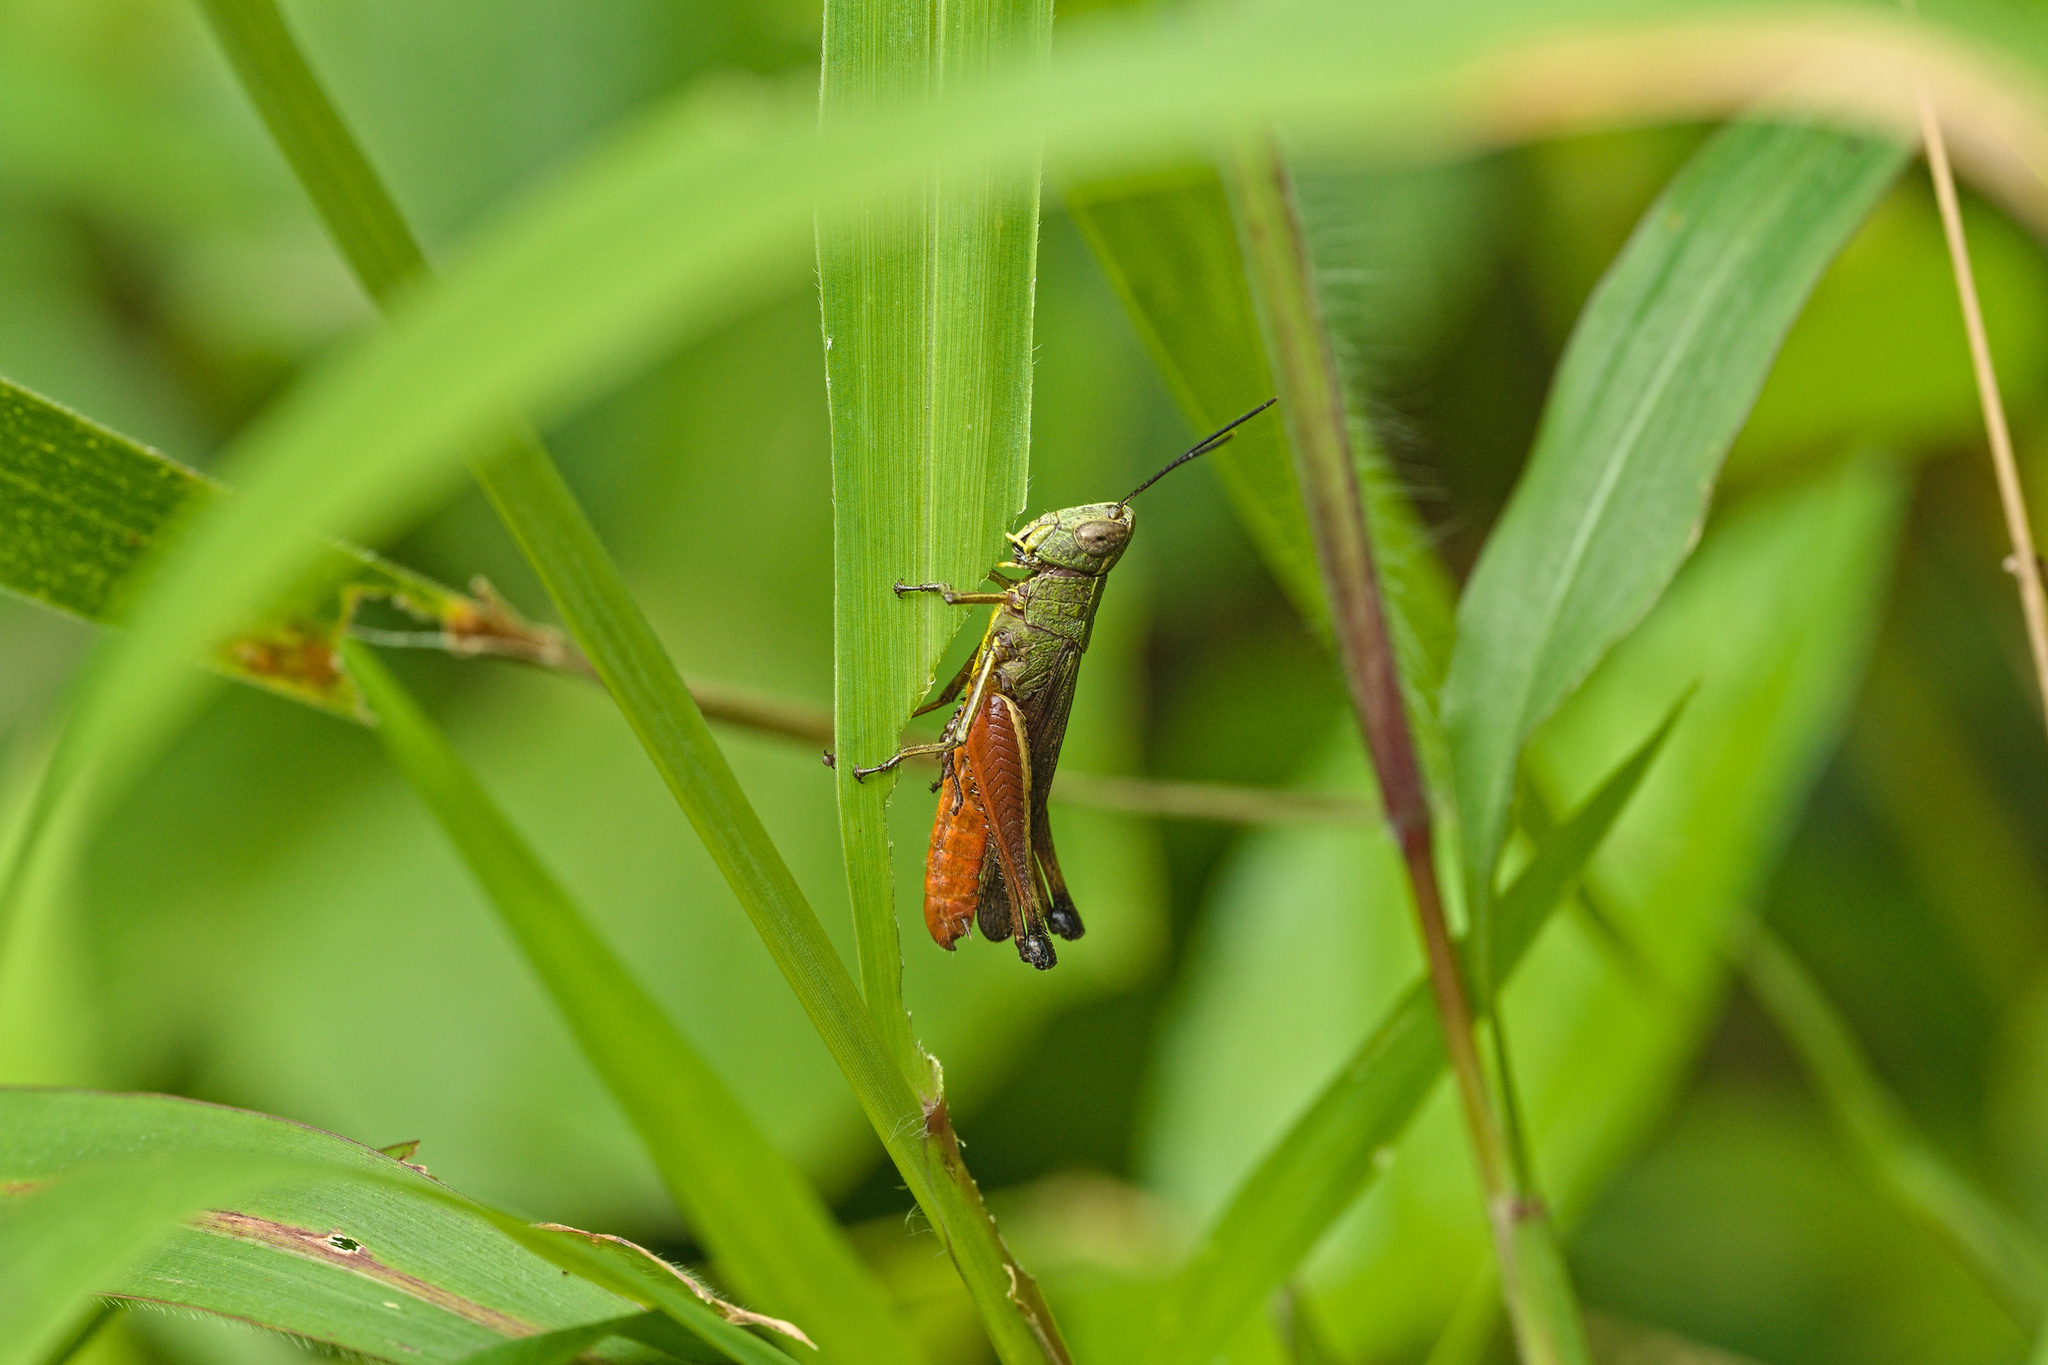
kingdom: Animalia
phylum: Arthropoda
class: Insecta
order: Orthoptera
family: Acrididae
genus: Amblytropidia
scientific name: Amblytropidia trinitatis
